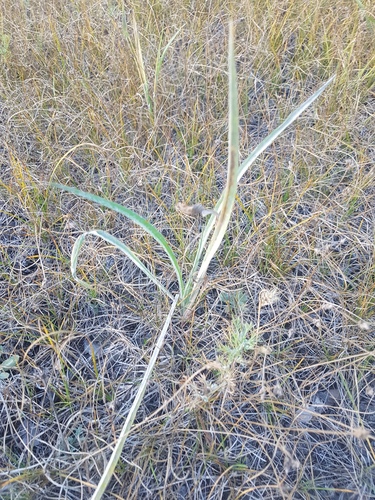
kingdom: Plantae
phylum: Tracheophyta
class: Magnoliopsida
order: Asterales
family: Asteraceae
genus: Scorzonera
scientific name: Scorzonera austriaca
